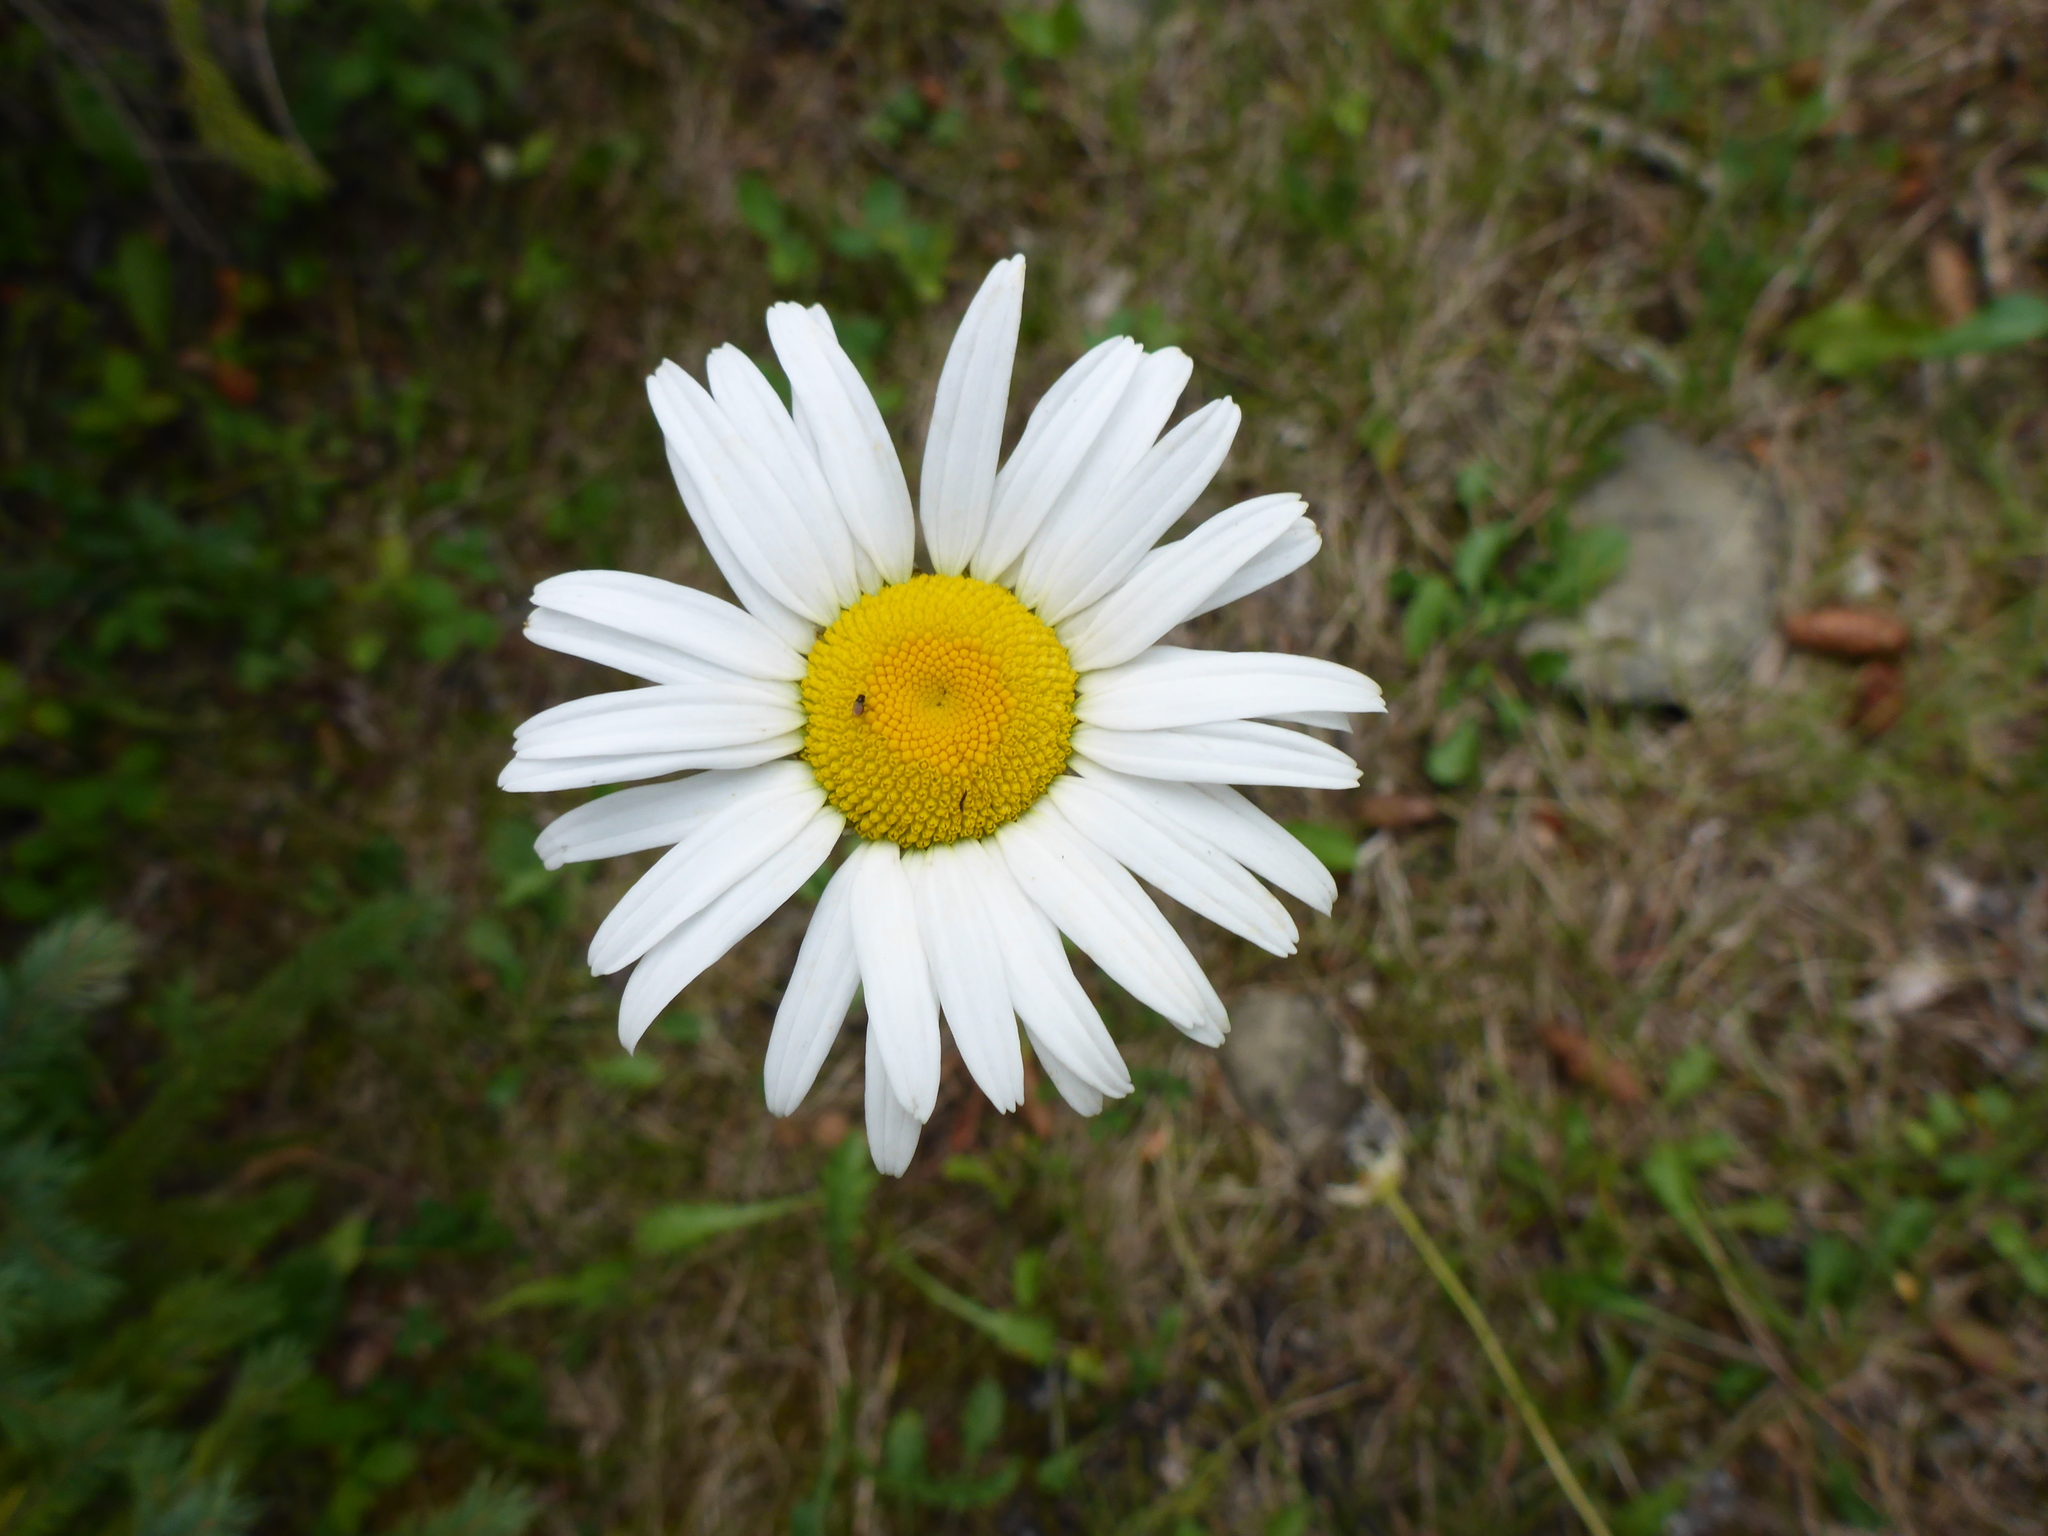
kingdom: Plantae
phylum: Tracheophyta
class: Magnoliopsida
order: Asterales
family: Asteraceae
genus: Leucanthemum
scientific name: Leucanthemum vulgare
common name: Oxeye daisy
